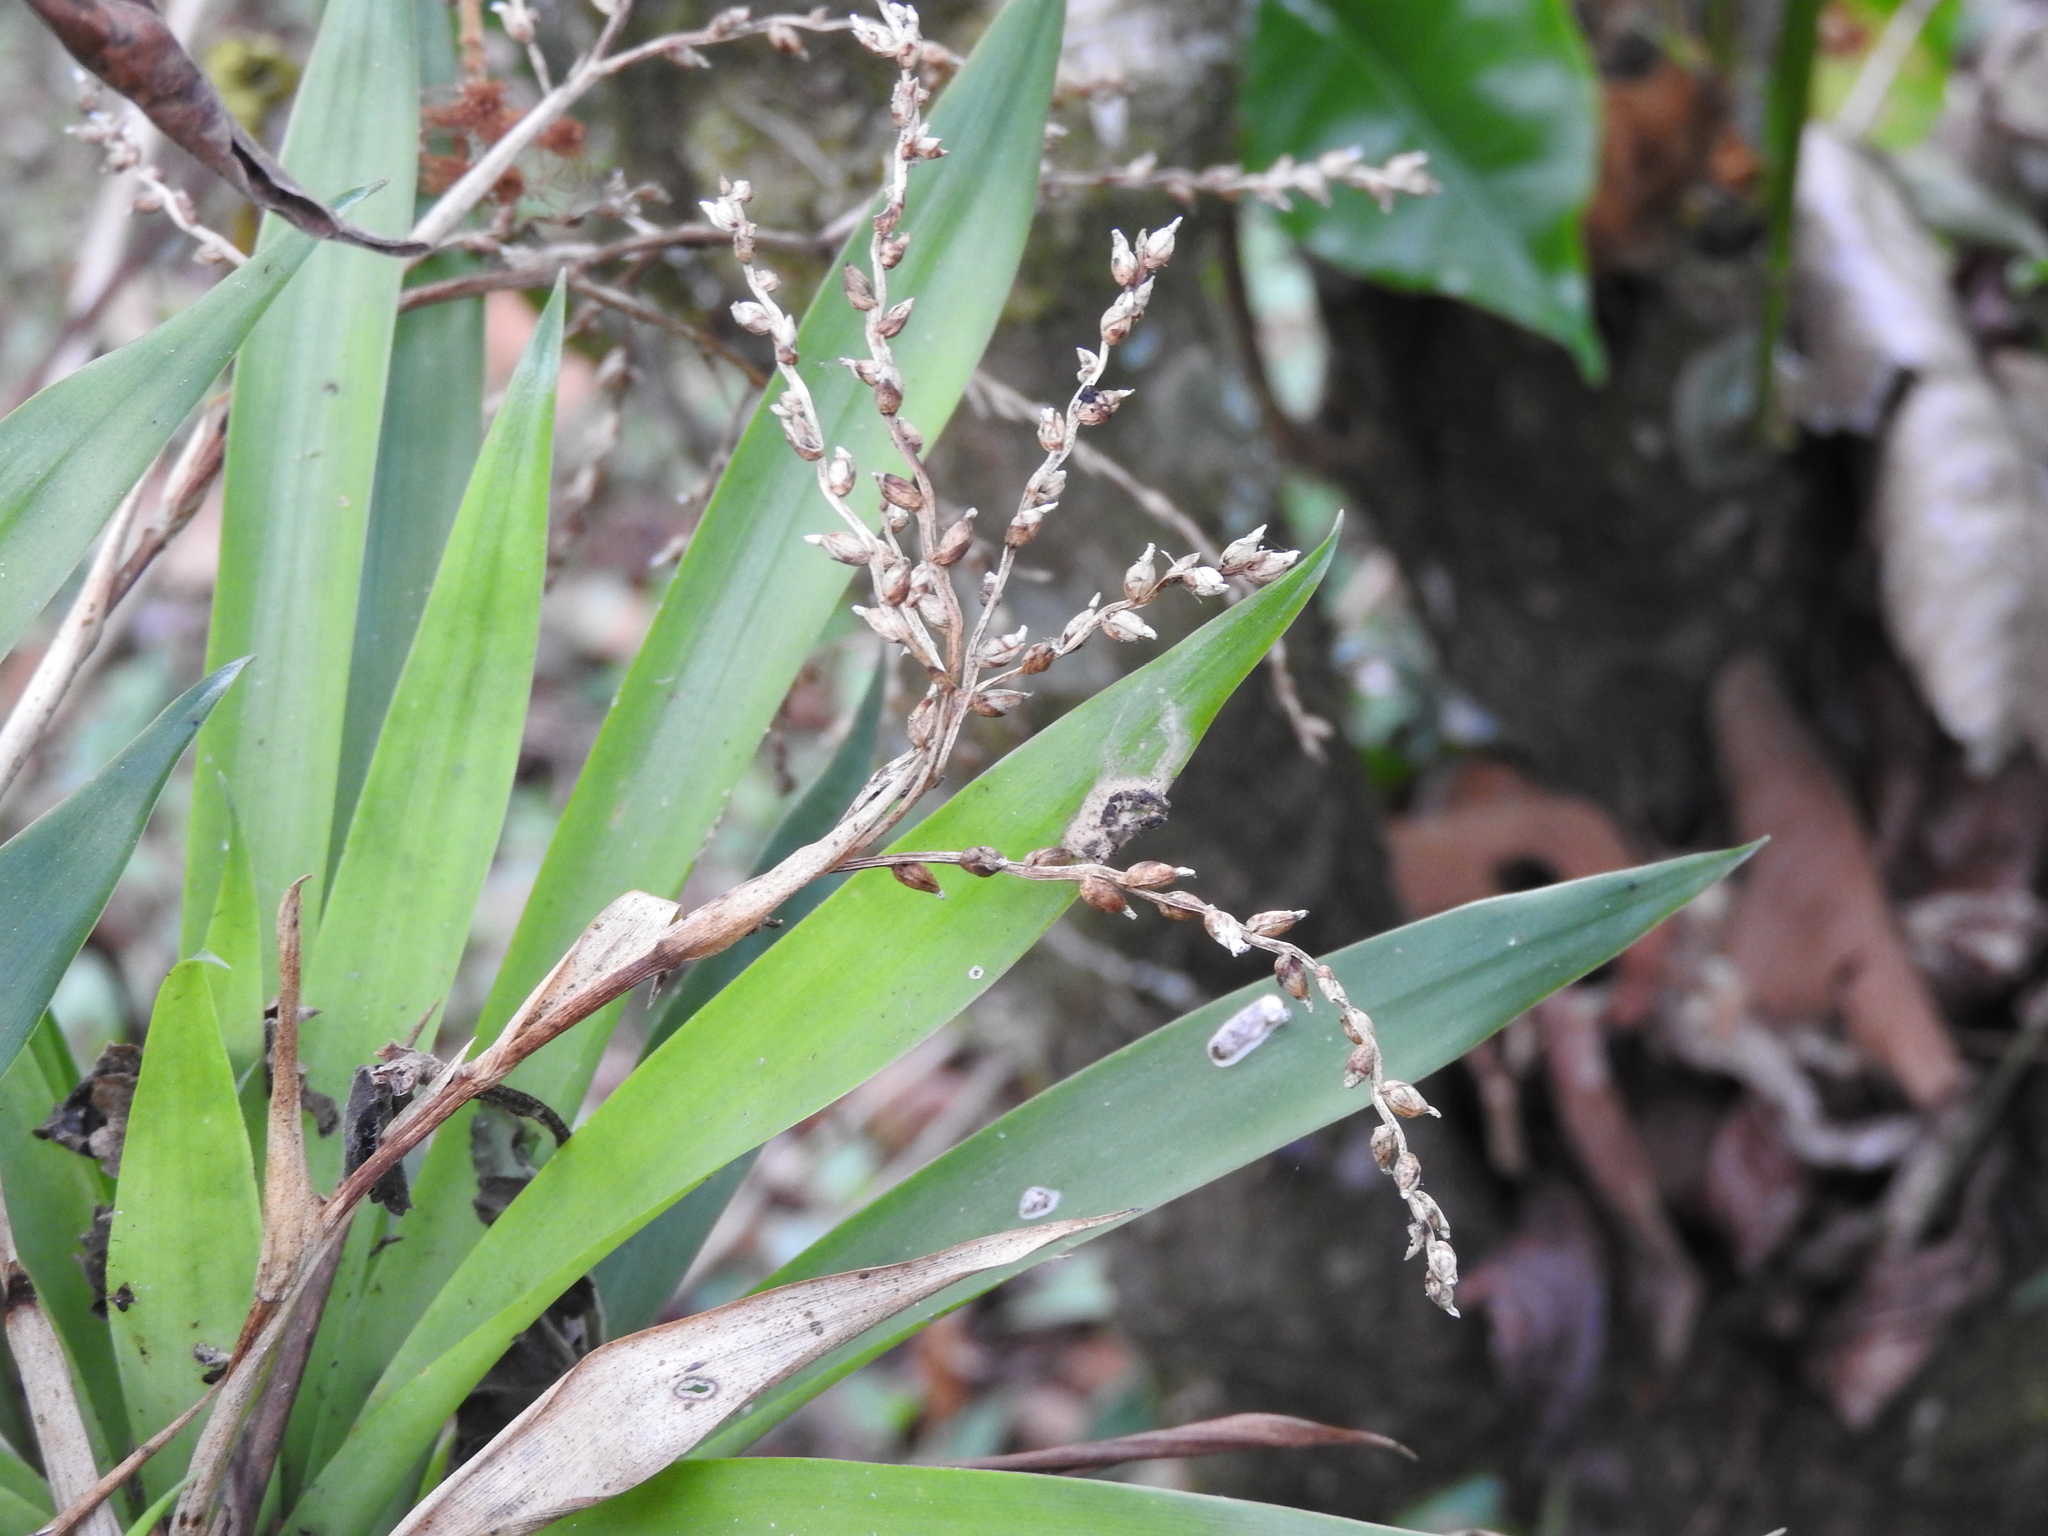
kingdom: Plantae
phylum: Tracheophyta
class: Liliopsida
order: Poales
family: Bromeliaceae
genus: Catopsis
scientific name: Catopsis paniculata
